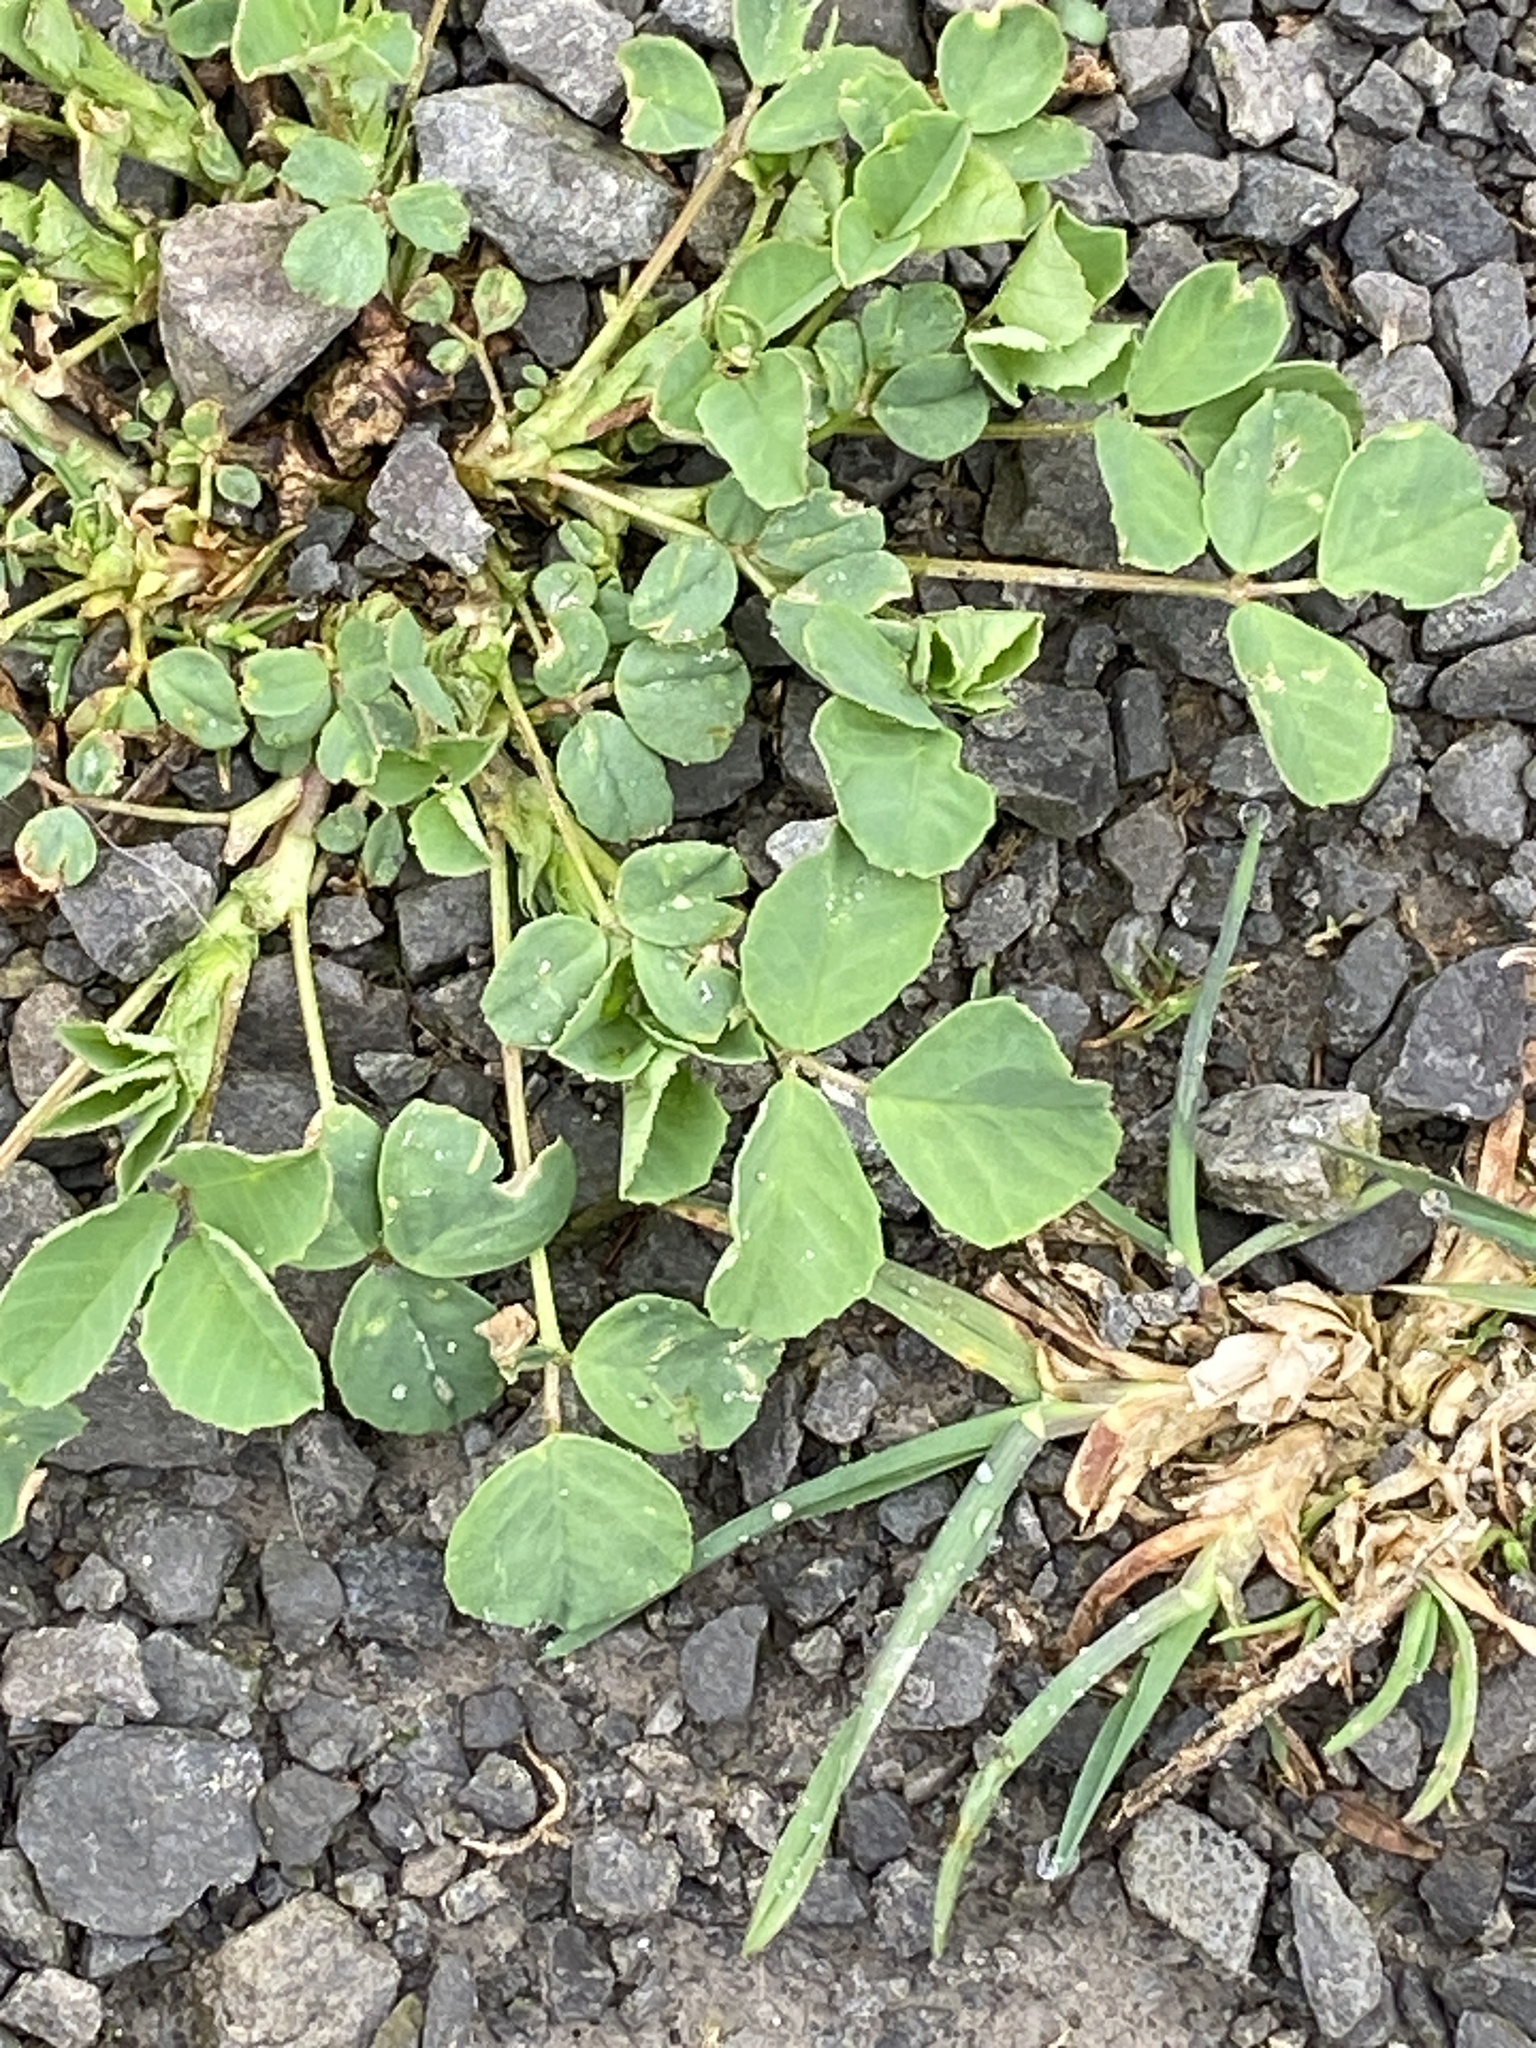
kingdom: Plantae
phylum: Tracheophyta
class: Magnoliopsida
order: Fabales
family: Fabaceae
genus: Medicago
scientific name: Medicago lupulina
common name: Black medick
